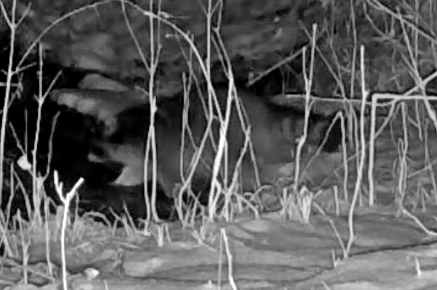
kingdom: Animalia
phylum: Chordata
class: Mammalia
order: Carnivora
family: Procyonidae
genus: Procyon
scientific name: Procyon lotor
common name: Raccoon
